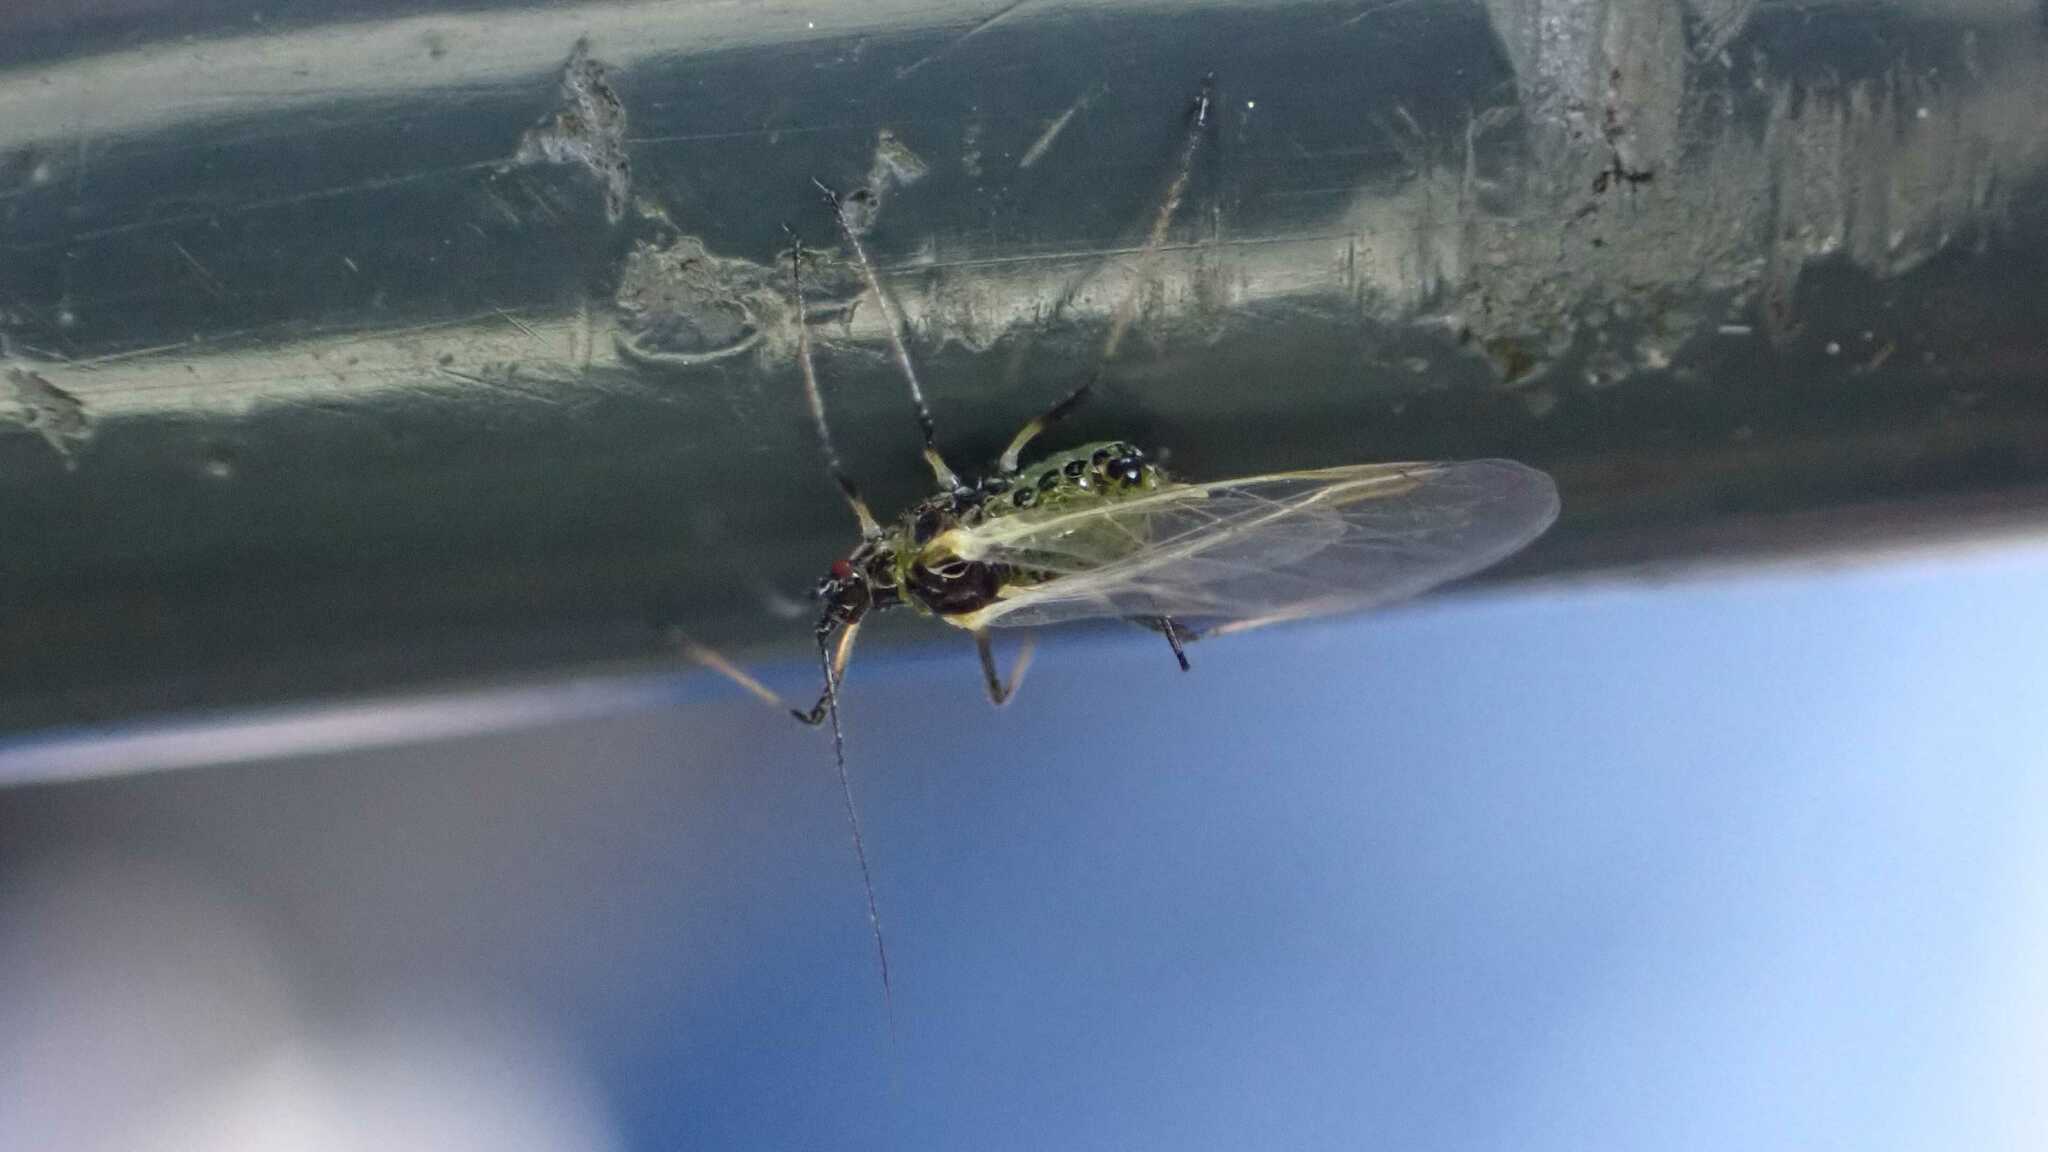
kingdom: Animalia
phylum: Arthropoda
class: Insecta
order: Hemiptera
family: Aphididae
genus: Macrosiphum
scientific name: Macrosiphum rosae
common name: Rose aphid
